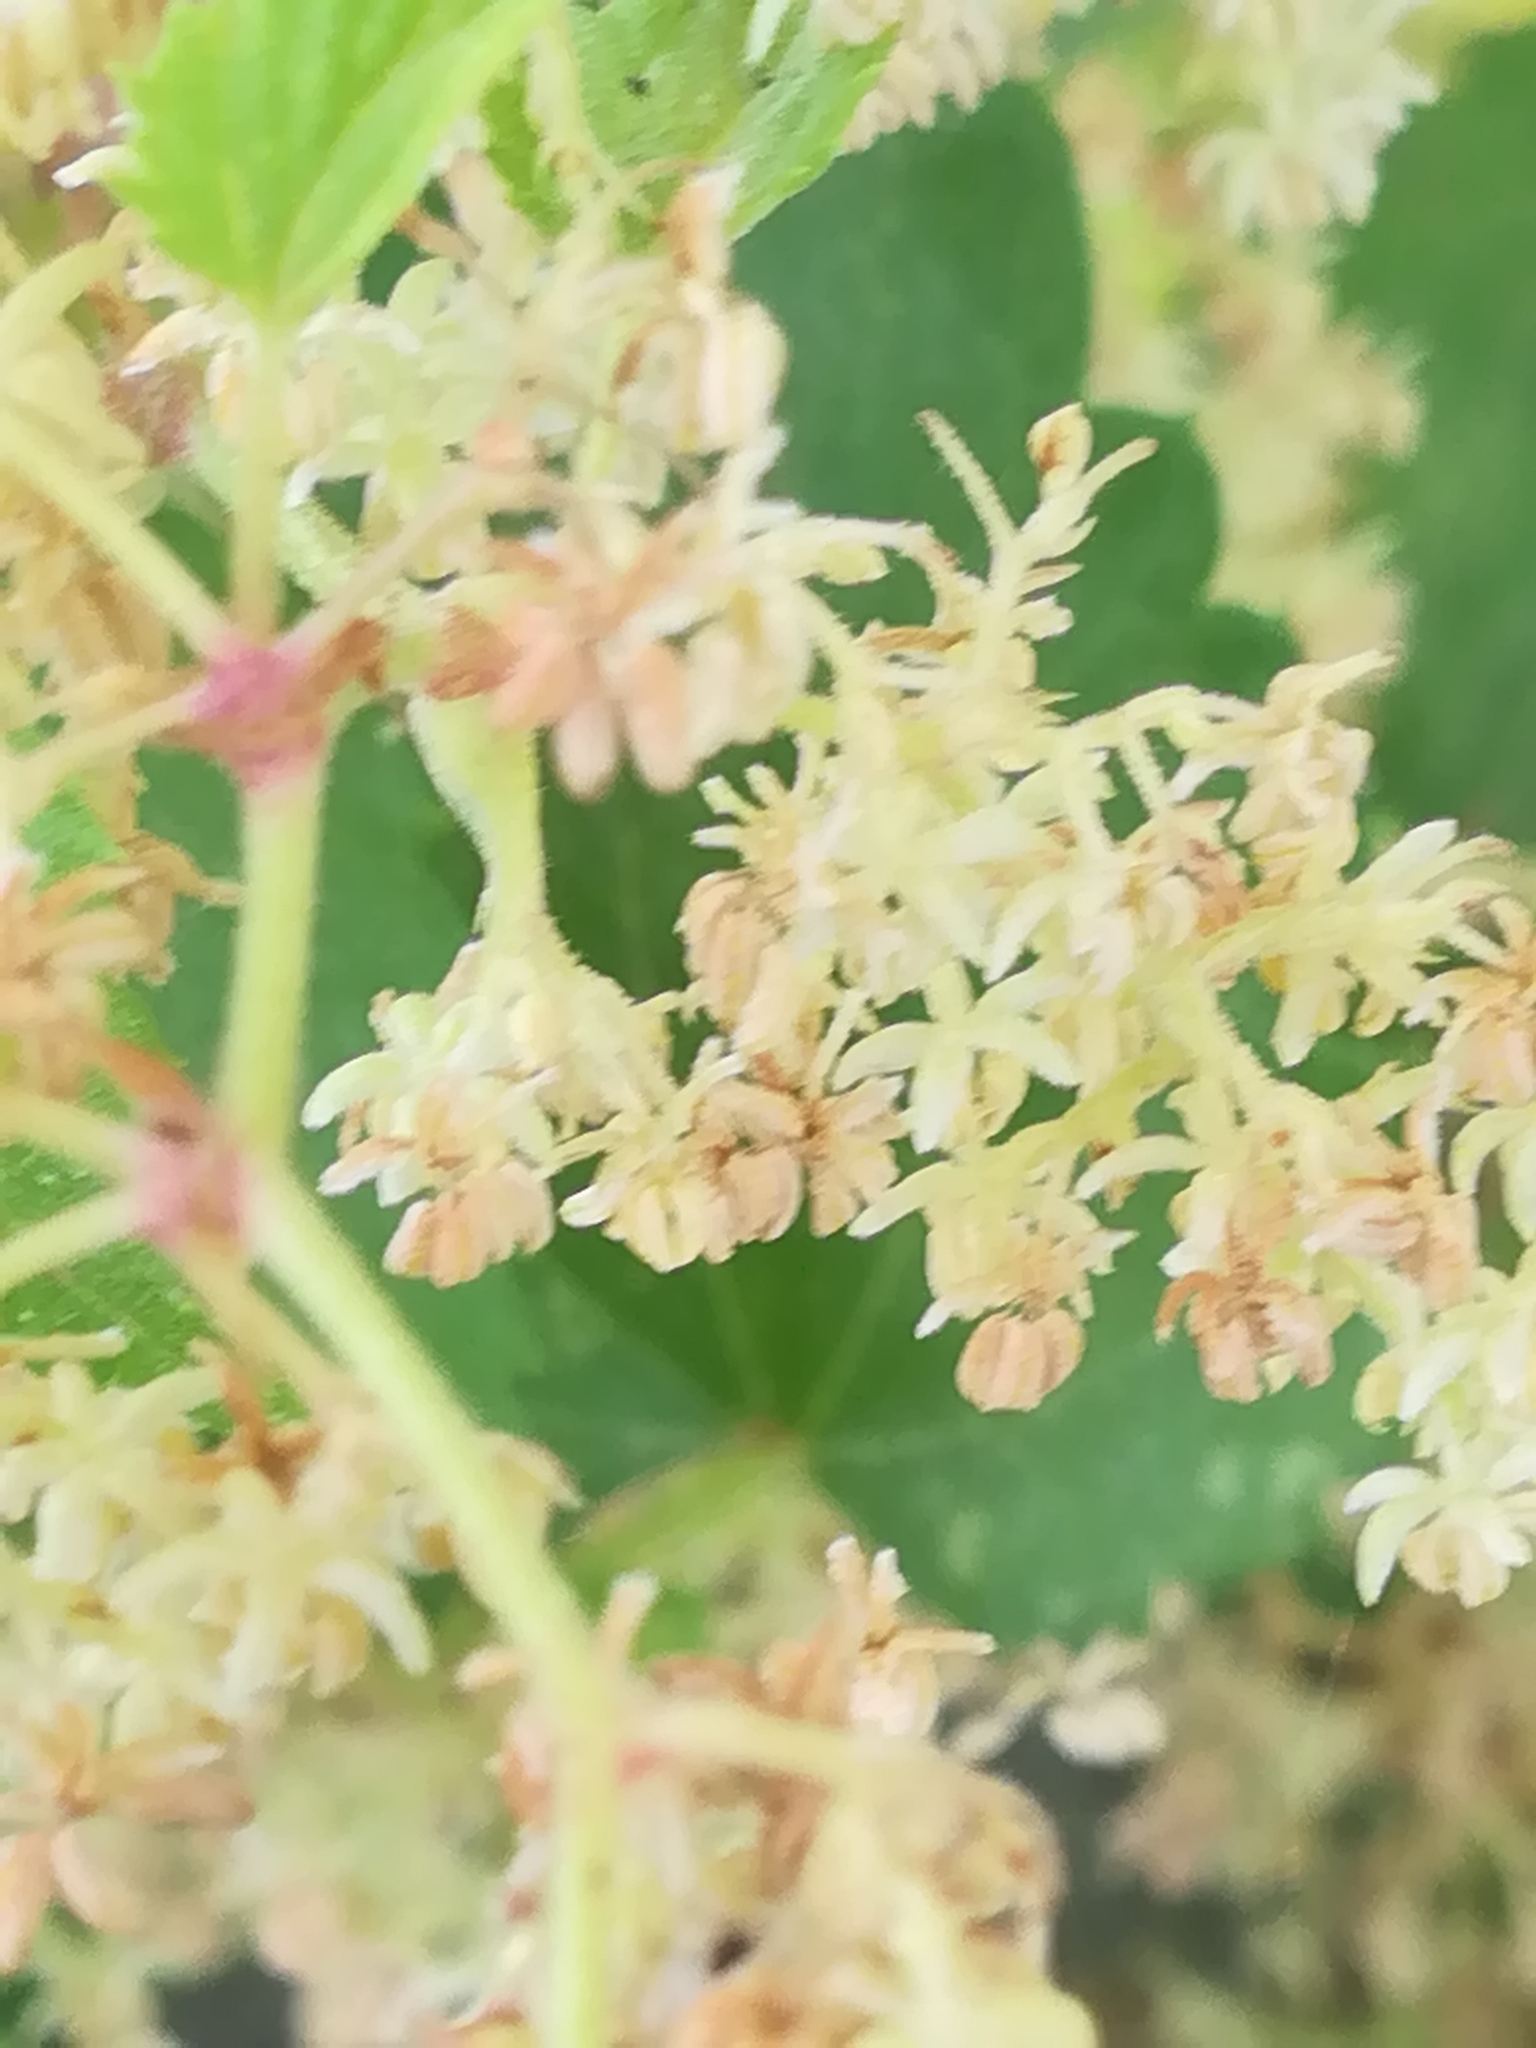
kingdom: Plantae
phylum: Tracheophyta
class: Magnoliopsida
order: Rosales
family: Cannabaceae
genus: Humulus
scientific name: Humulus lupulus
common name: Hop
